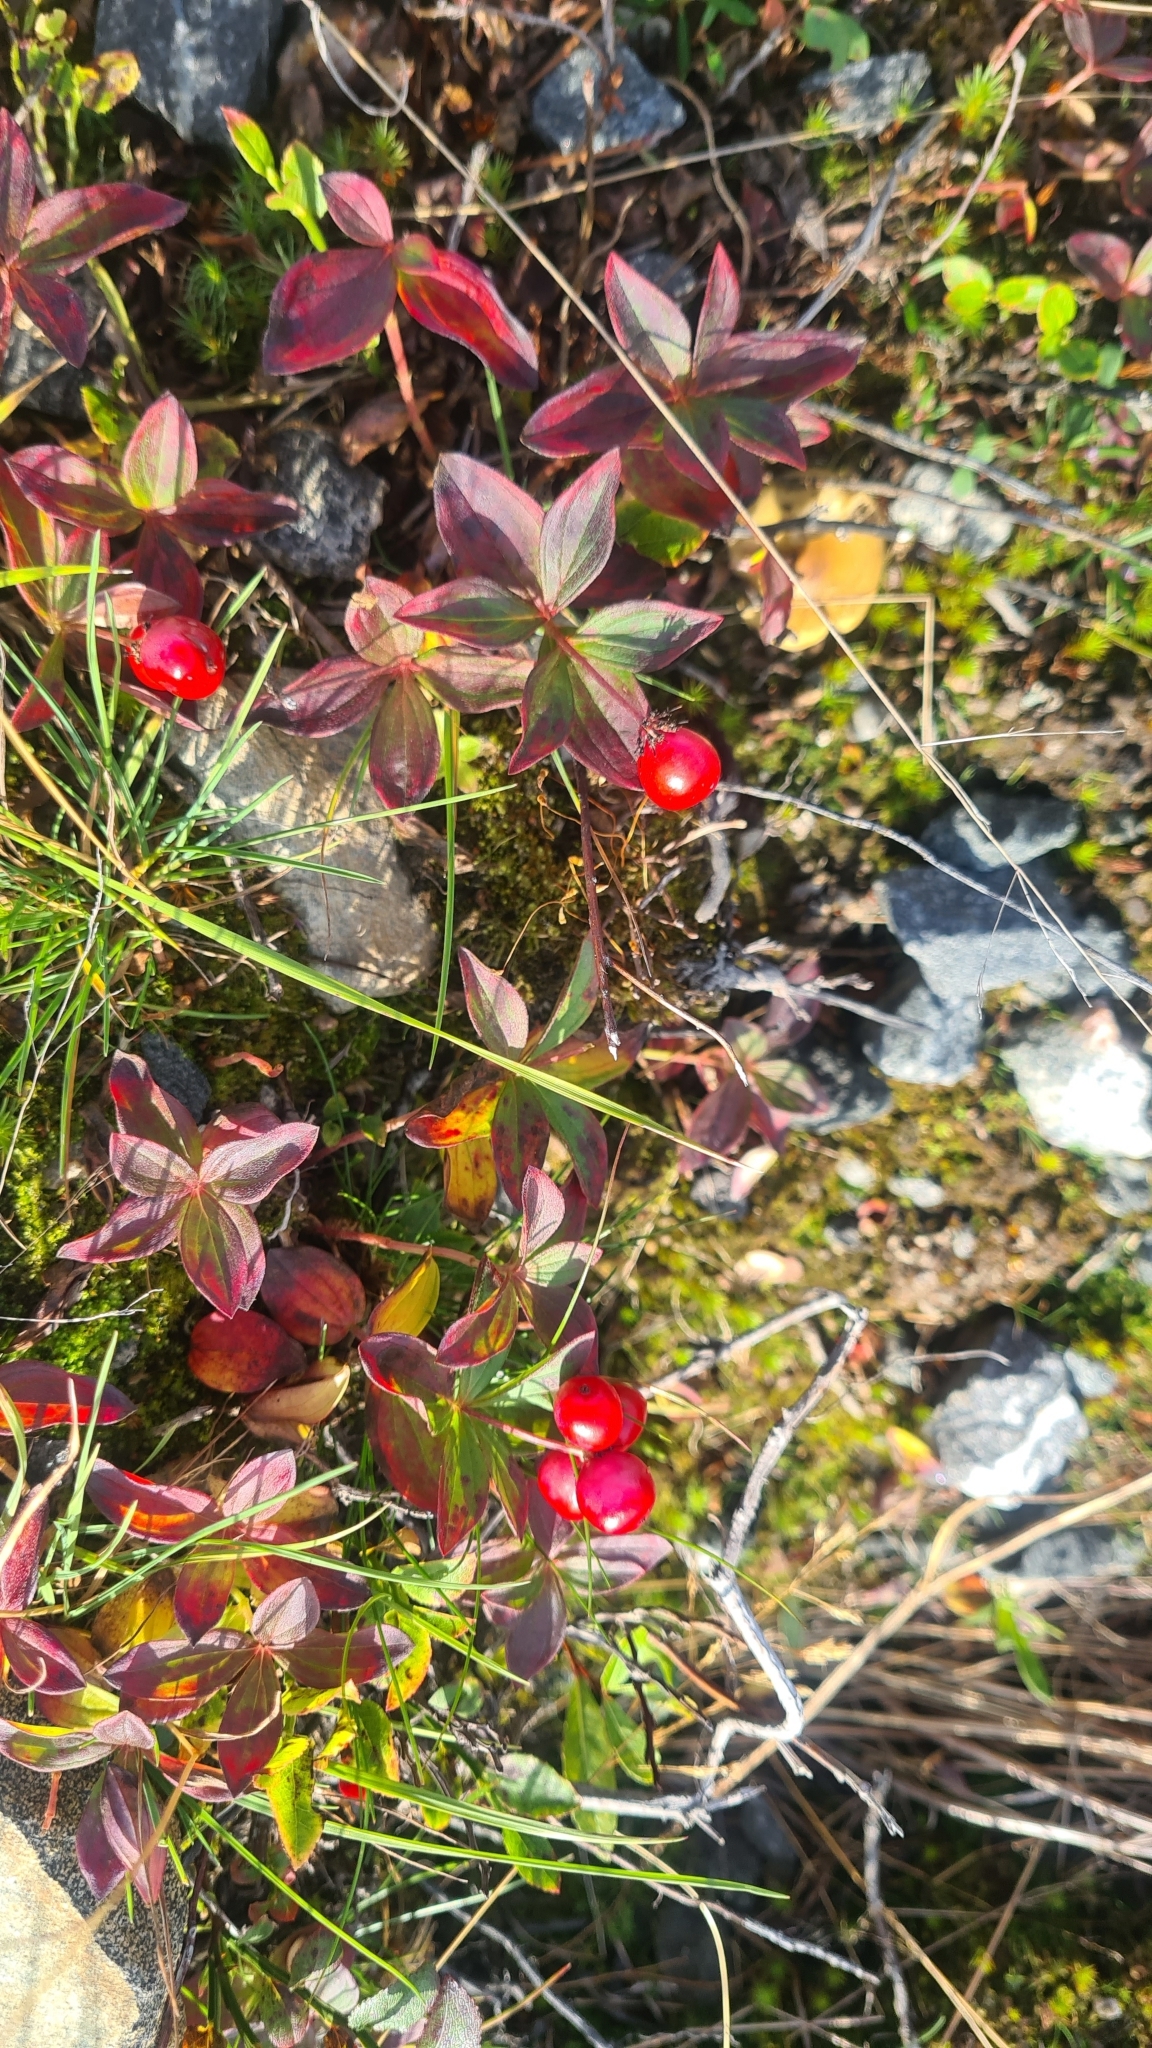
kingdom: Plantae
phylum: Tracheophyta
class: Magnoliopsida
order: Cornales
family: Cornaceae
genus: Cornus
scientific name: Cornus suecica
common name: Dwarf cornel
